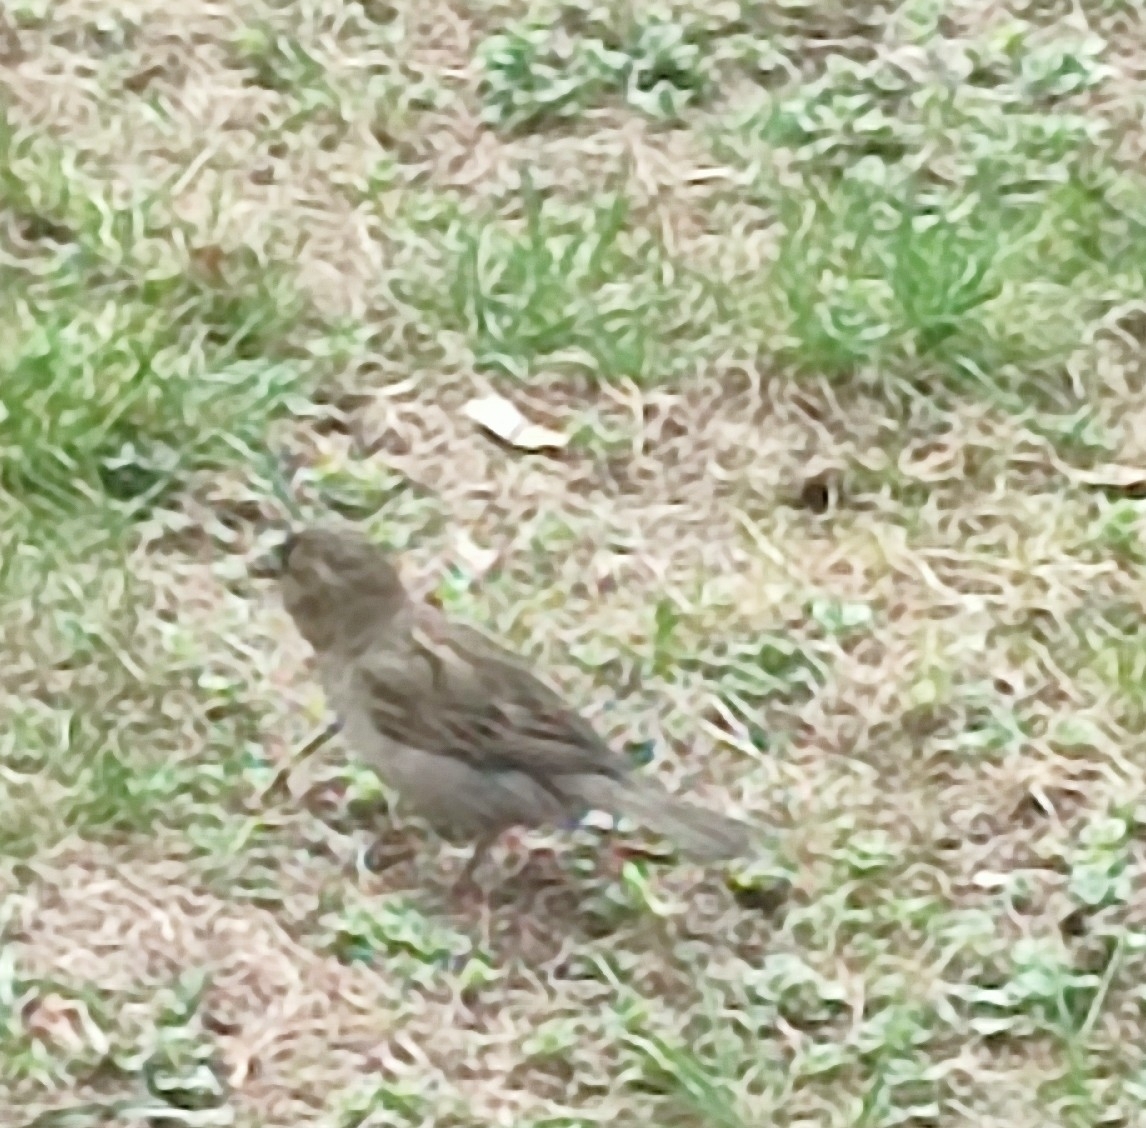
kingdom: Animalia
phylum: Chordata
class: Aves
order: Passeriformes
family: Passeridae
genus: Passer
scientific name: Passer domesticus
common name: House sparrow
